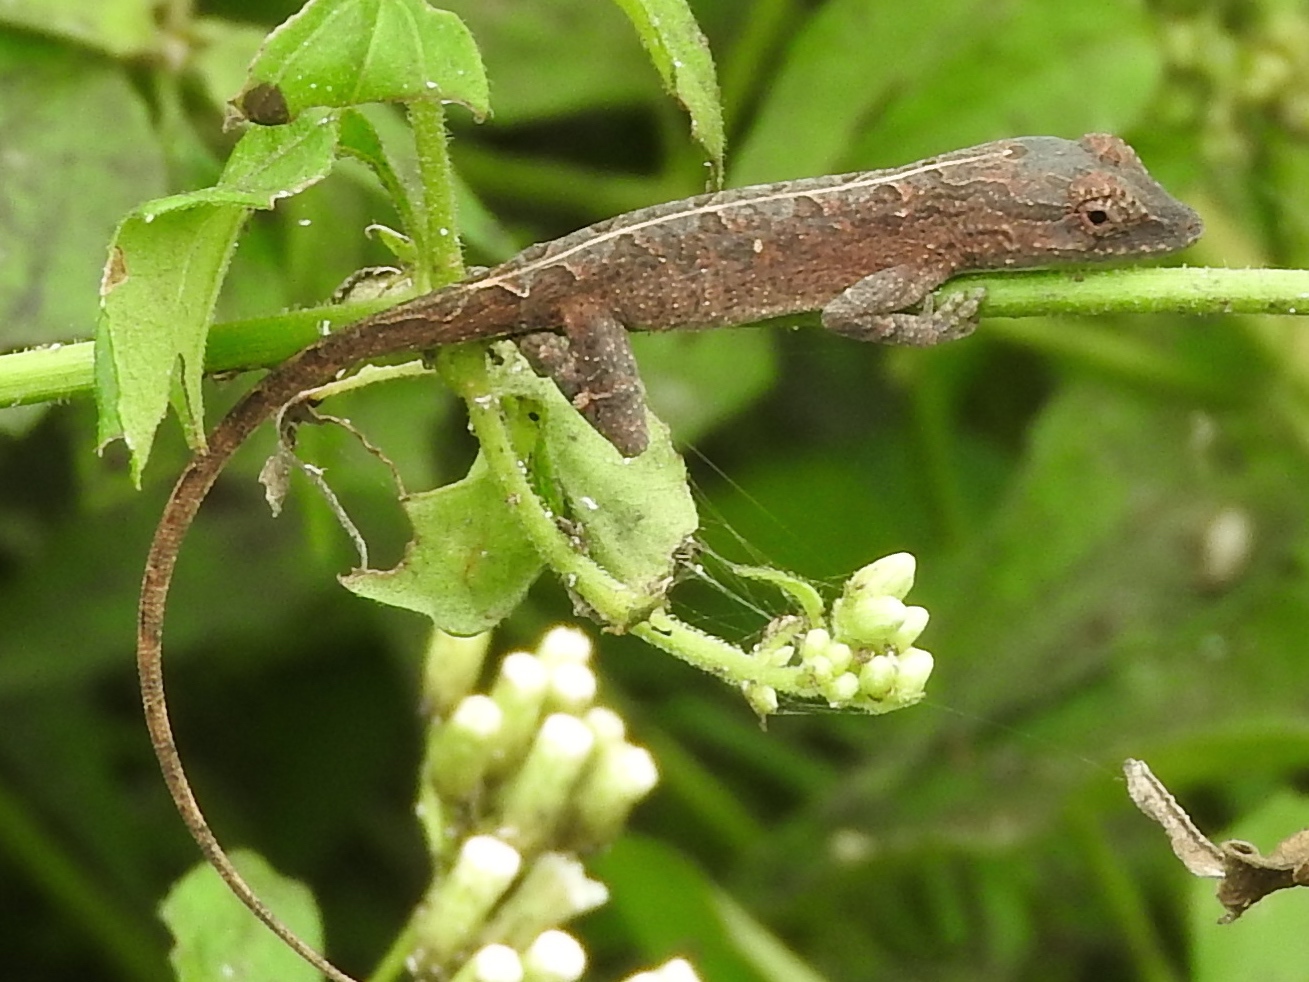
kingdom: Animalia
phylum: Chordata
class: Squamata
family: Dactyloidae
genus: Anolis
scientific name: Anolis nebulosus
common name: Clouded anole
